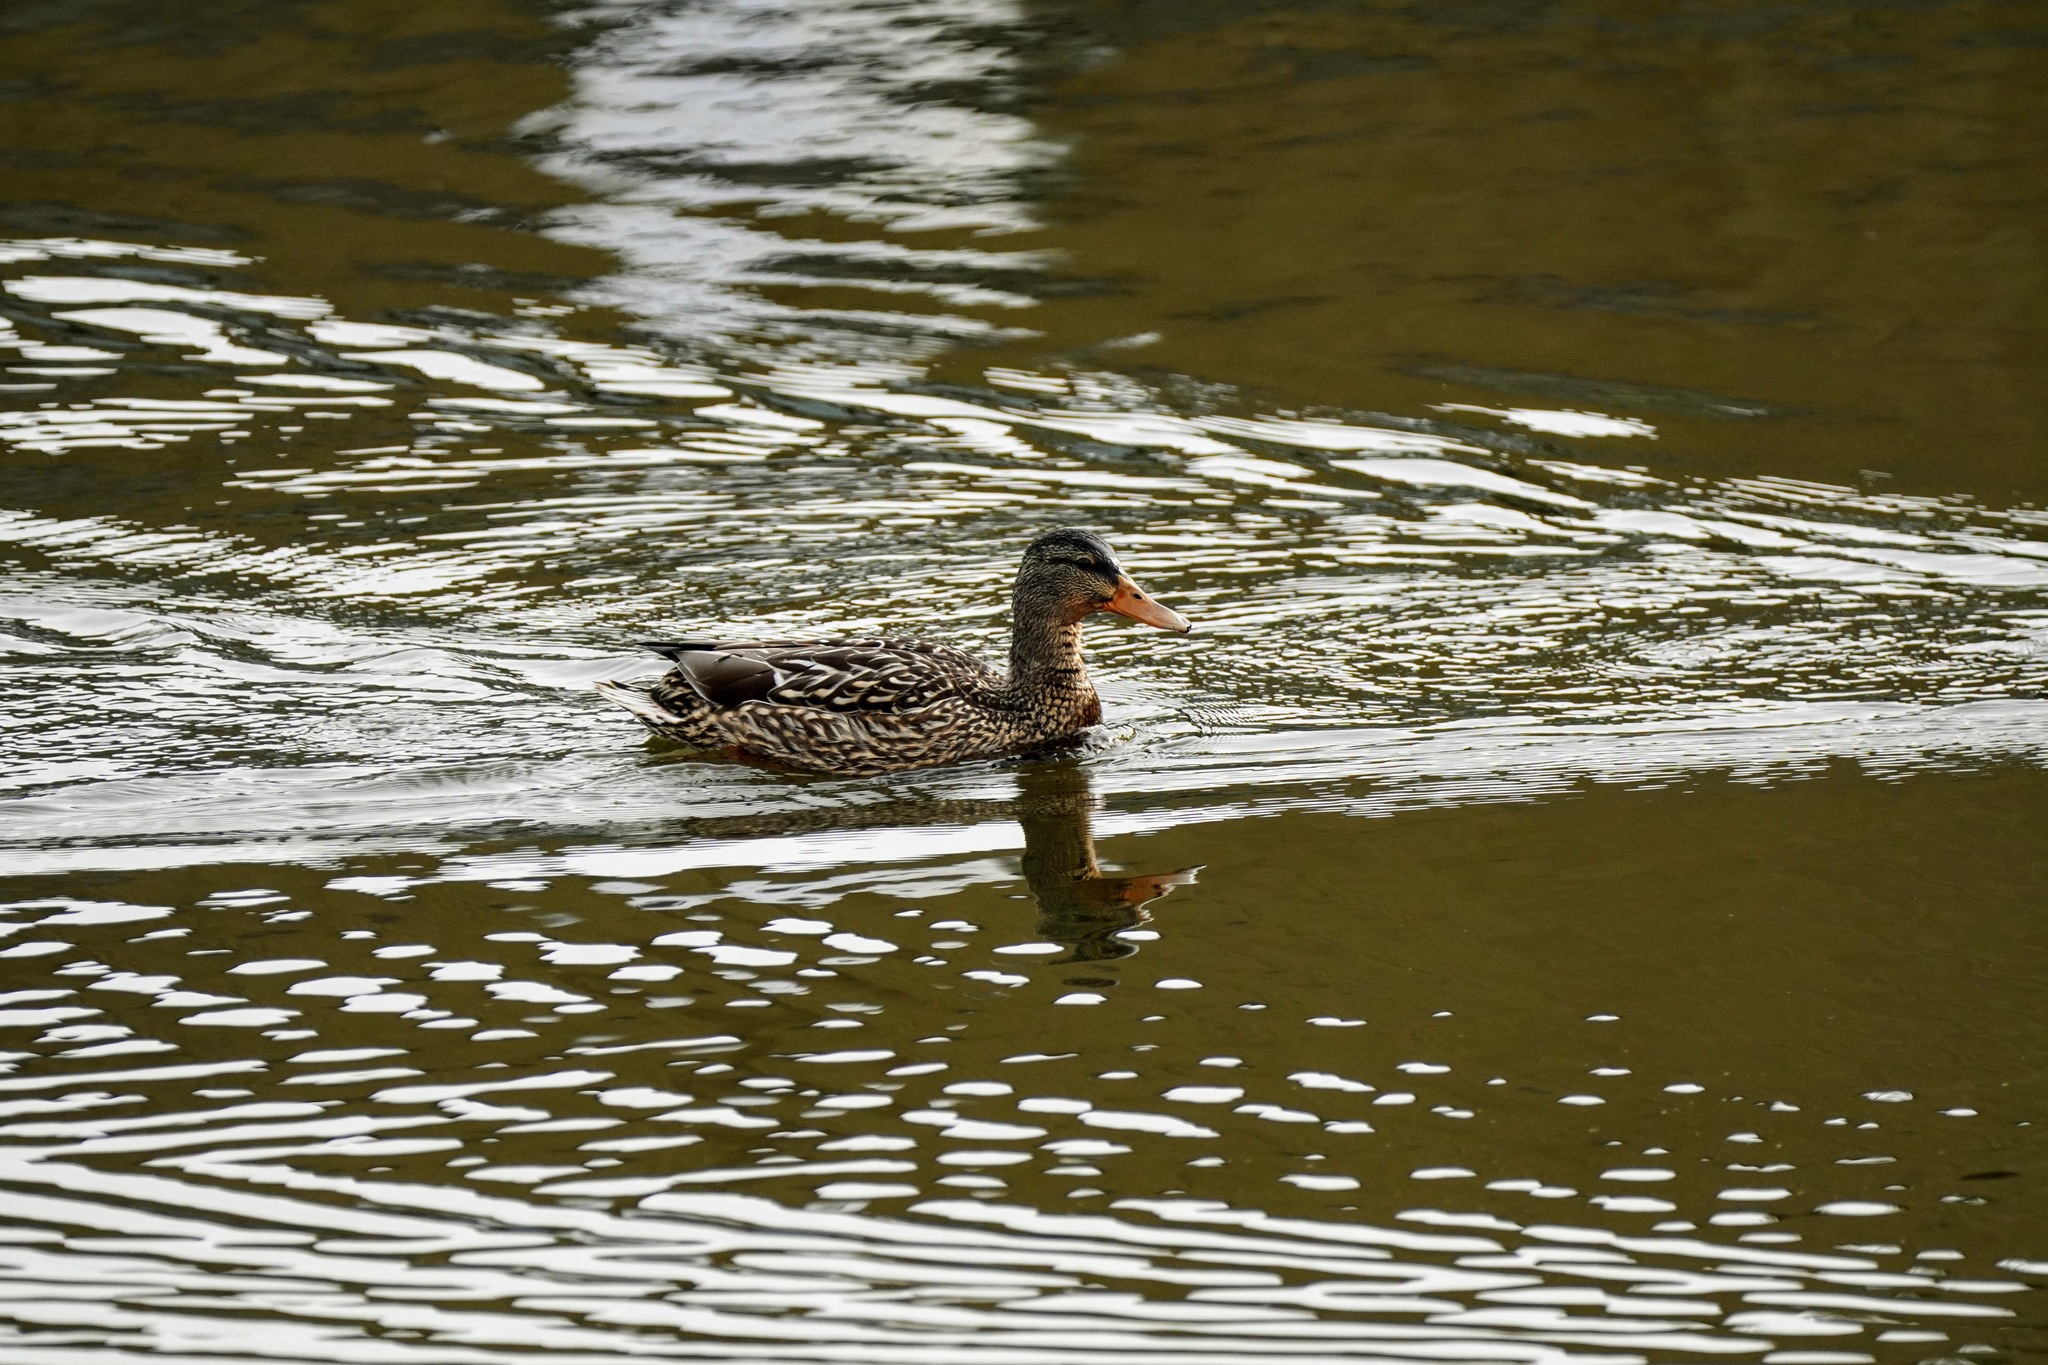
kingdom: Animalia
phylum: Chordata
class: Aves
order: Anseriformes
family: Anatidae
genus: Anas
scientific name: Anas platyrhynchos
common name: Mallard
